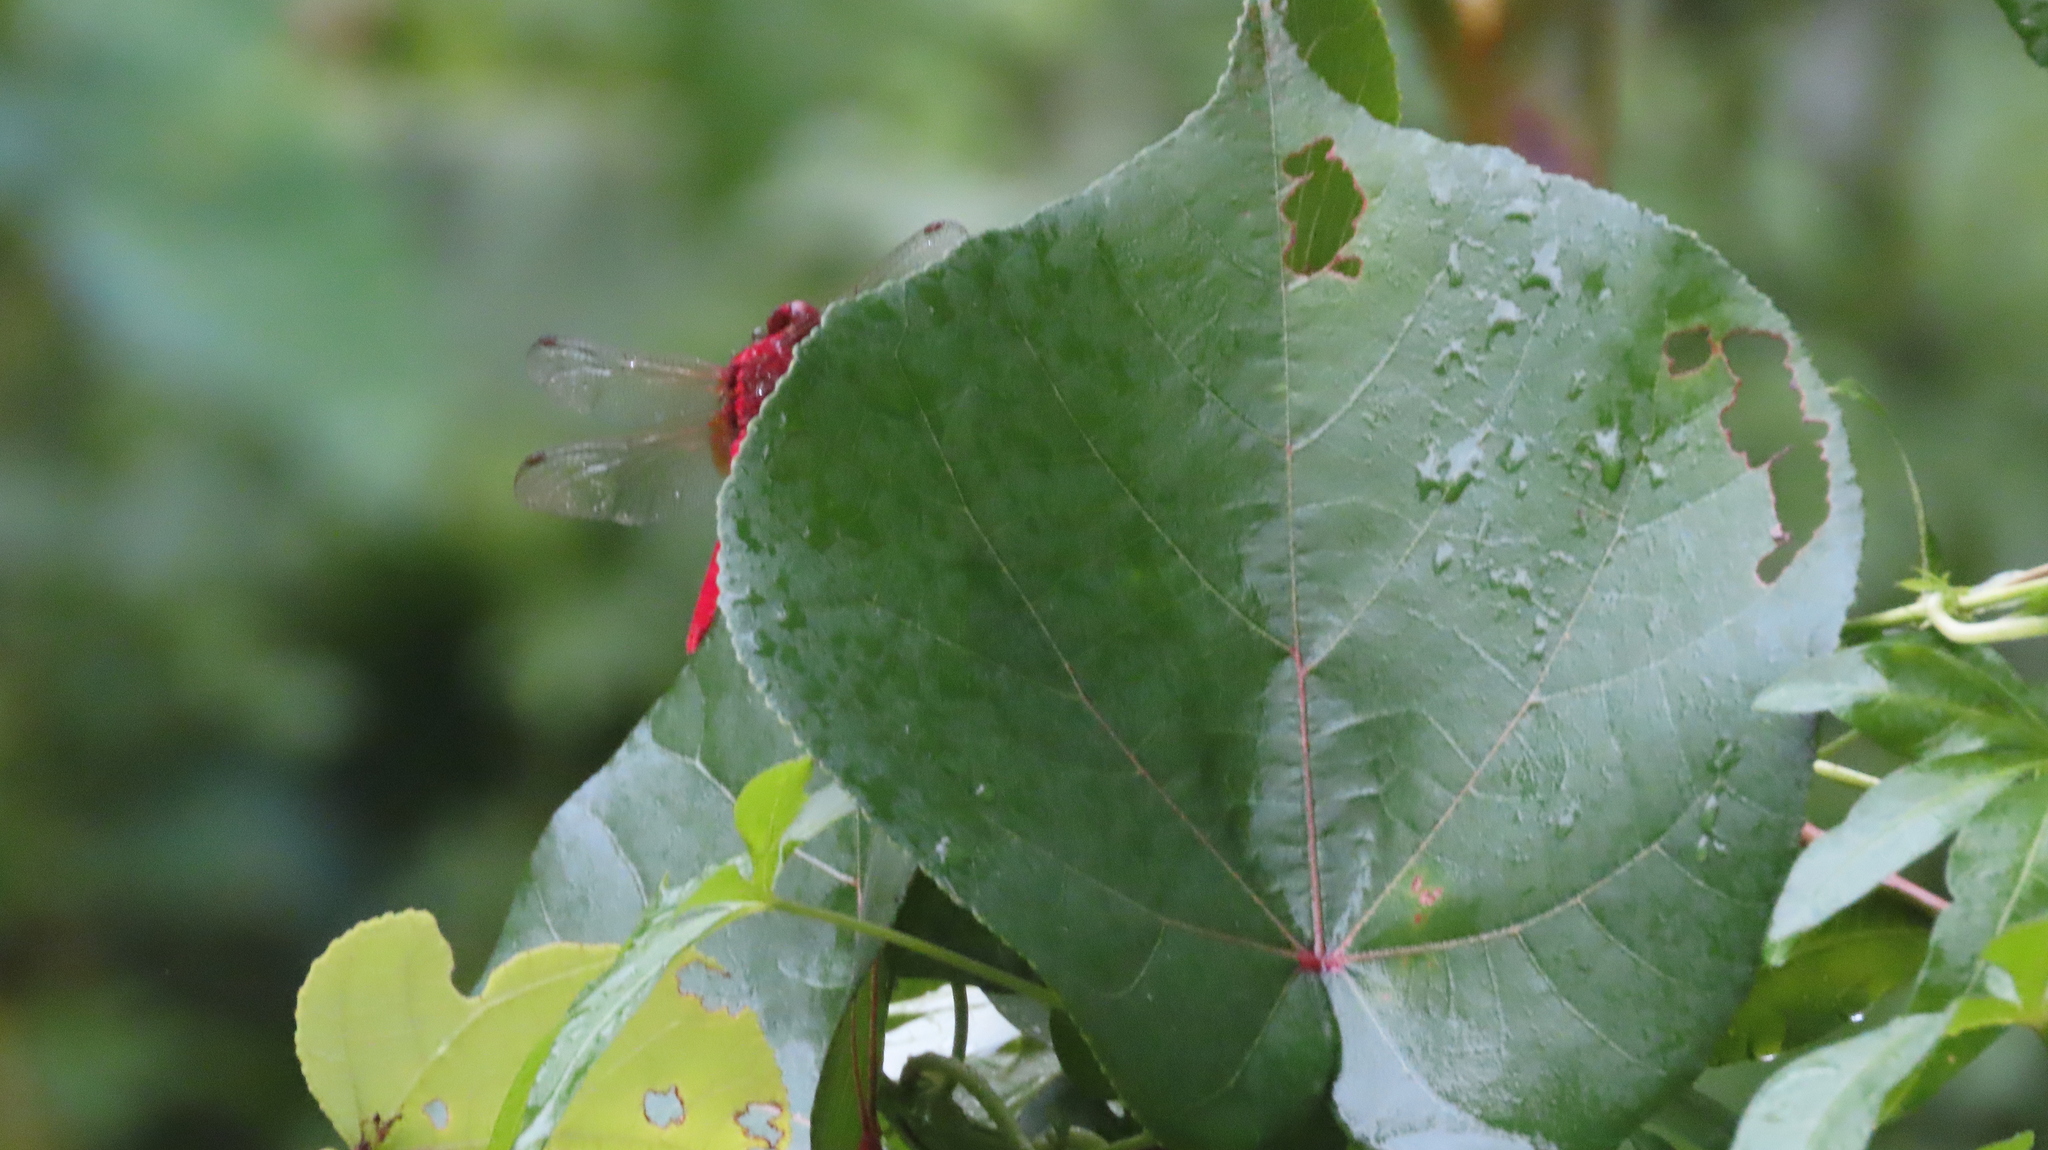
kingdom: Animalia
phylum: Arthropoda
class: Insecta
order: Odonata
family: Libellulidae
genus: Rhodothemis
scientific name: Rhodothemis rufa
